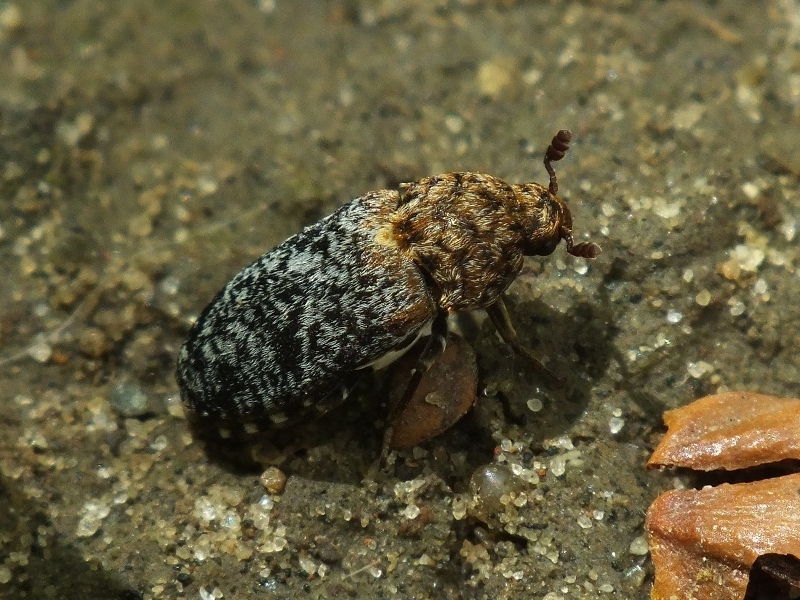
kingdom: Animalia
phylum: Arthropoda
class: Insecta
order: Coleoptera
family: Dermestidae
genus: Dermestes
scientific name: Dermestes undulatus
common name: Wavy carpet beetle
